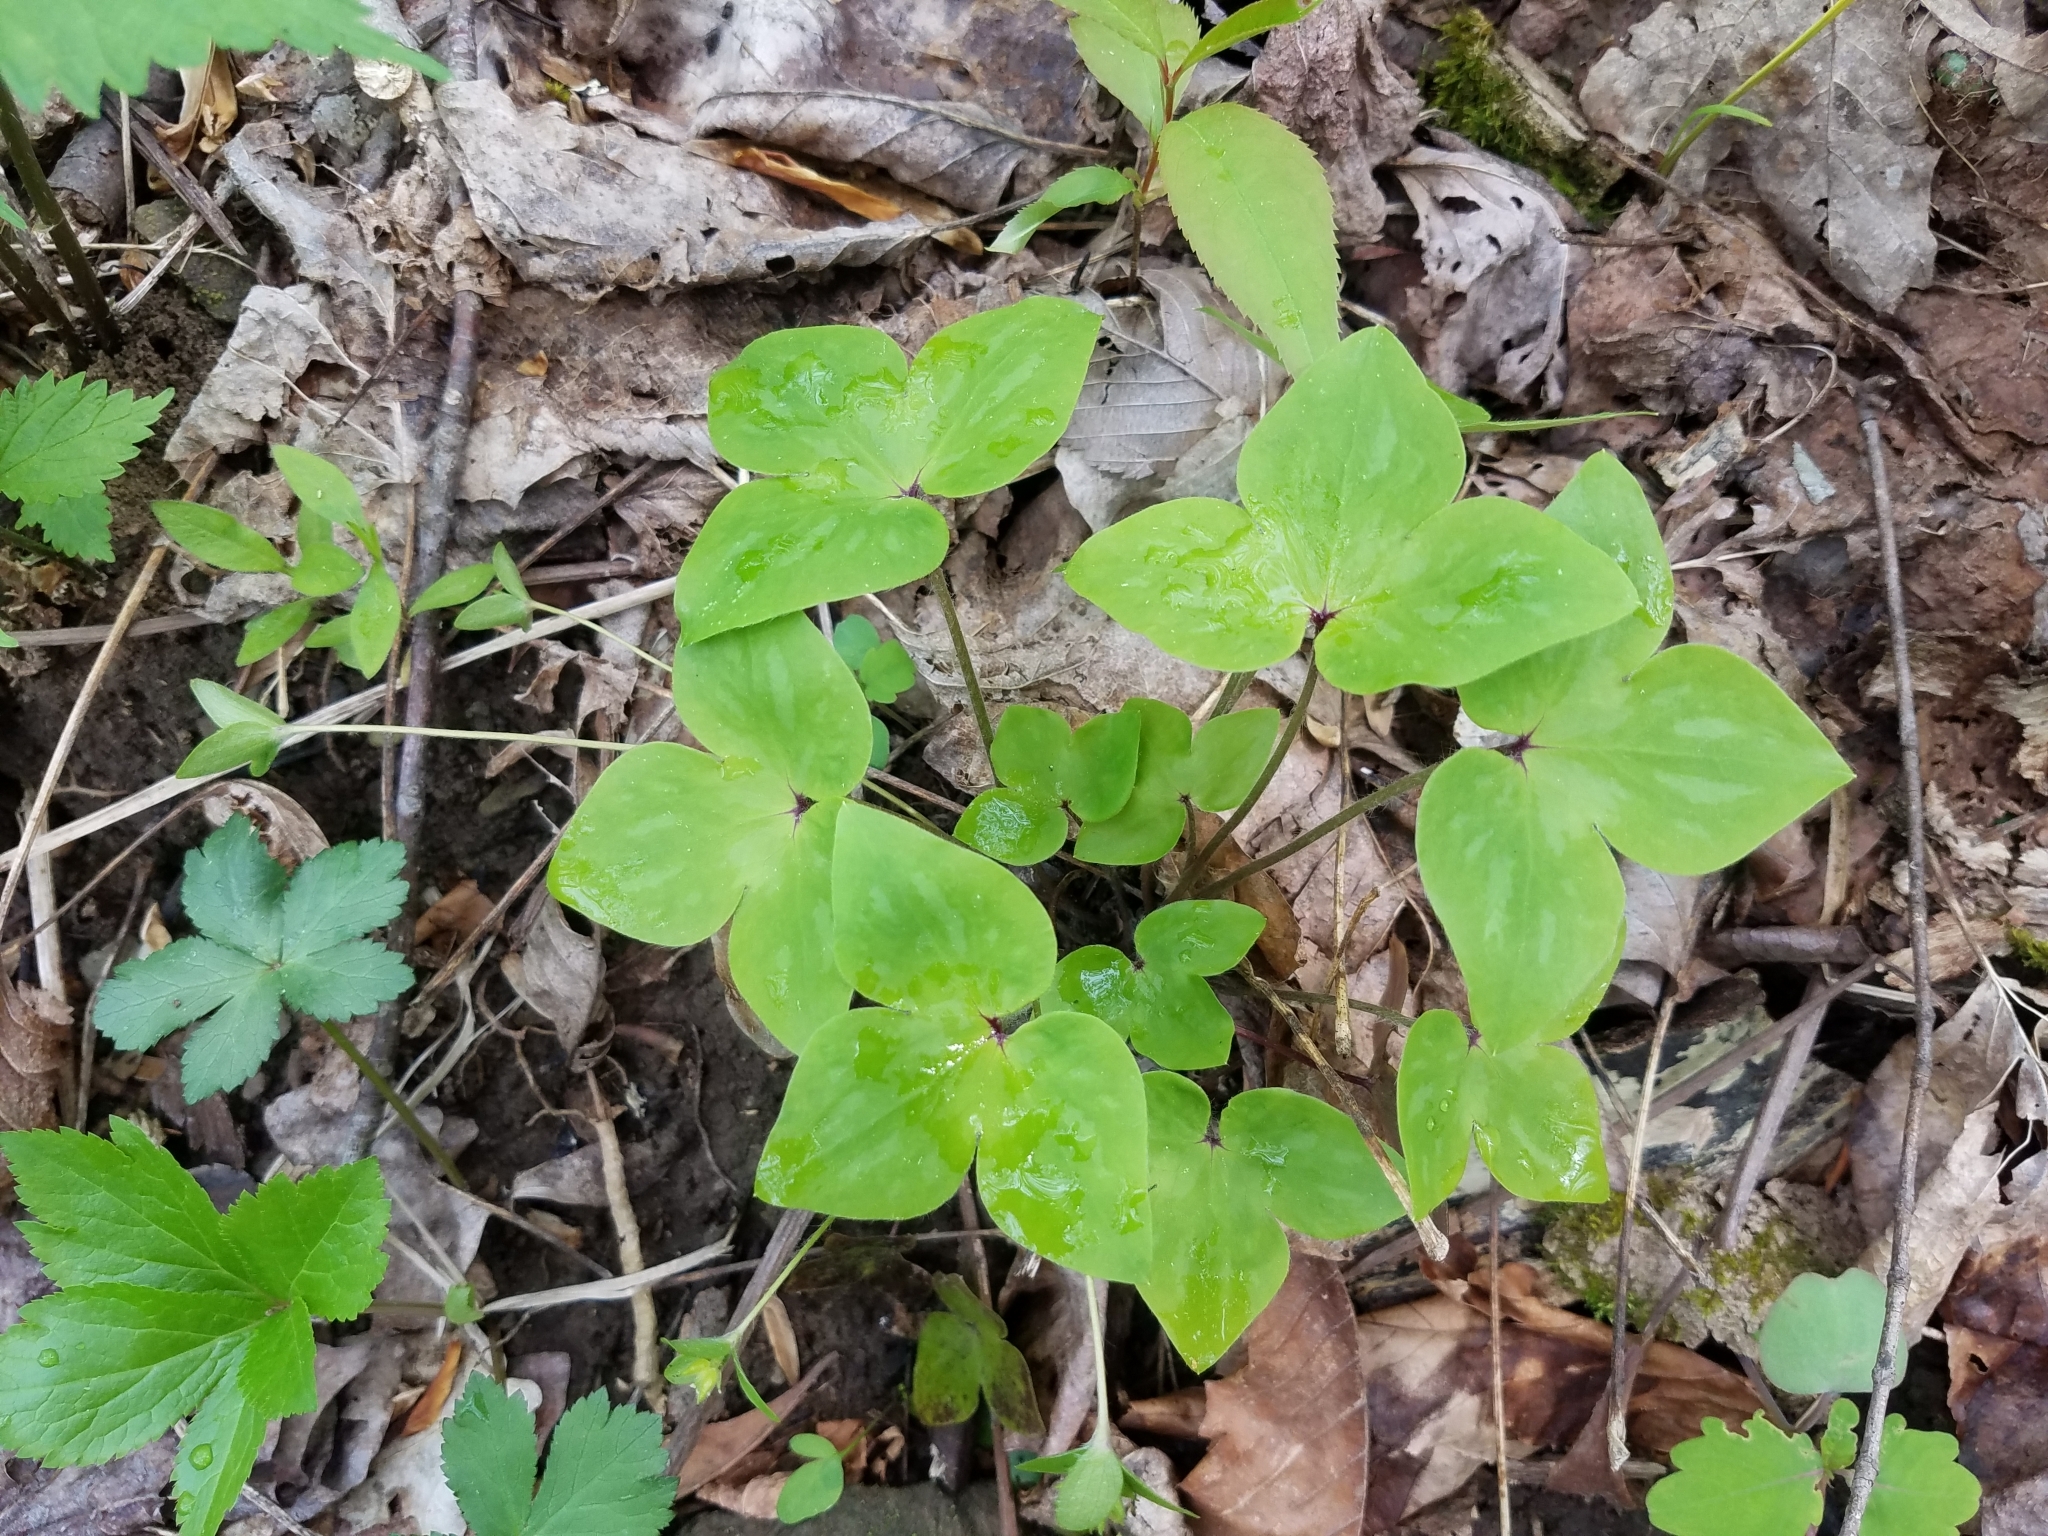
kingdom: Plantae
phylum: Tracheophyta
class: Magnoliopsida
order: Ranunculales
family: Ranunculaceae
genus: Hepatica
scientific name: Hepatica acutiloba
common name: Sharp-lobed hepatica
